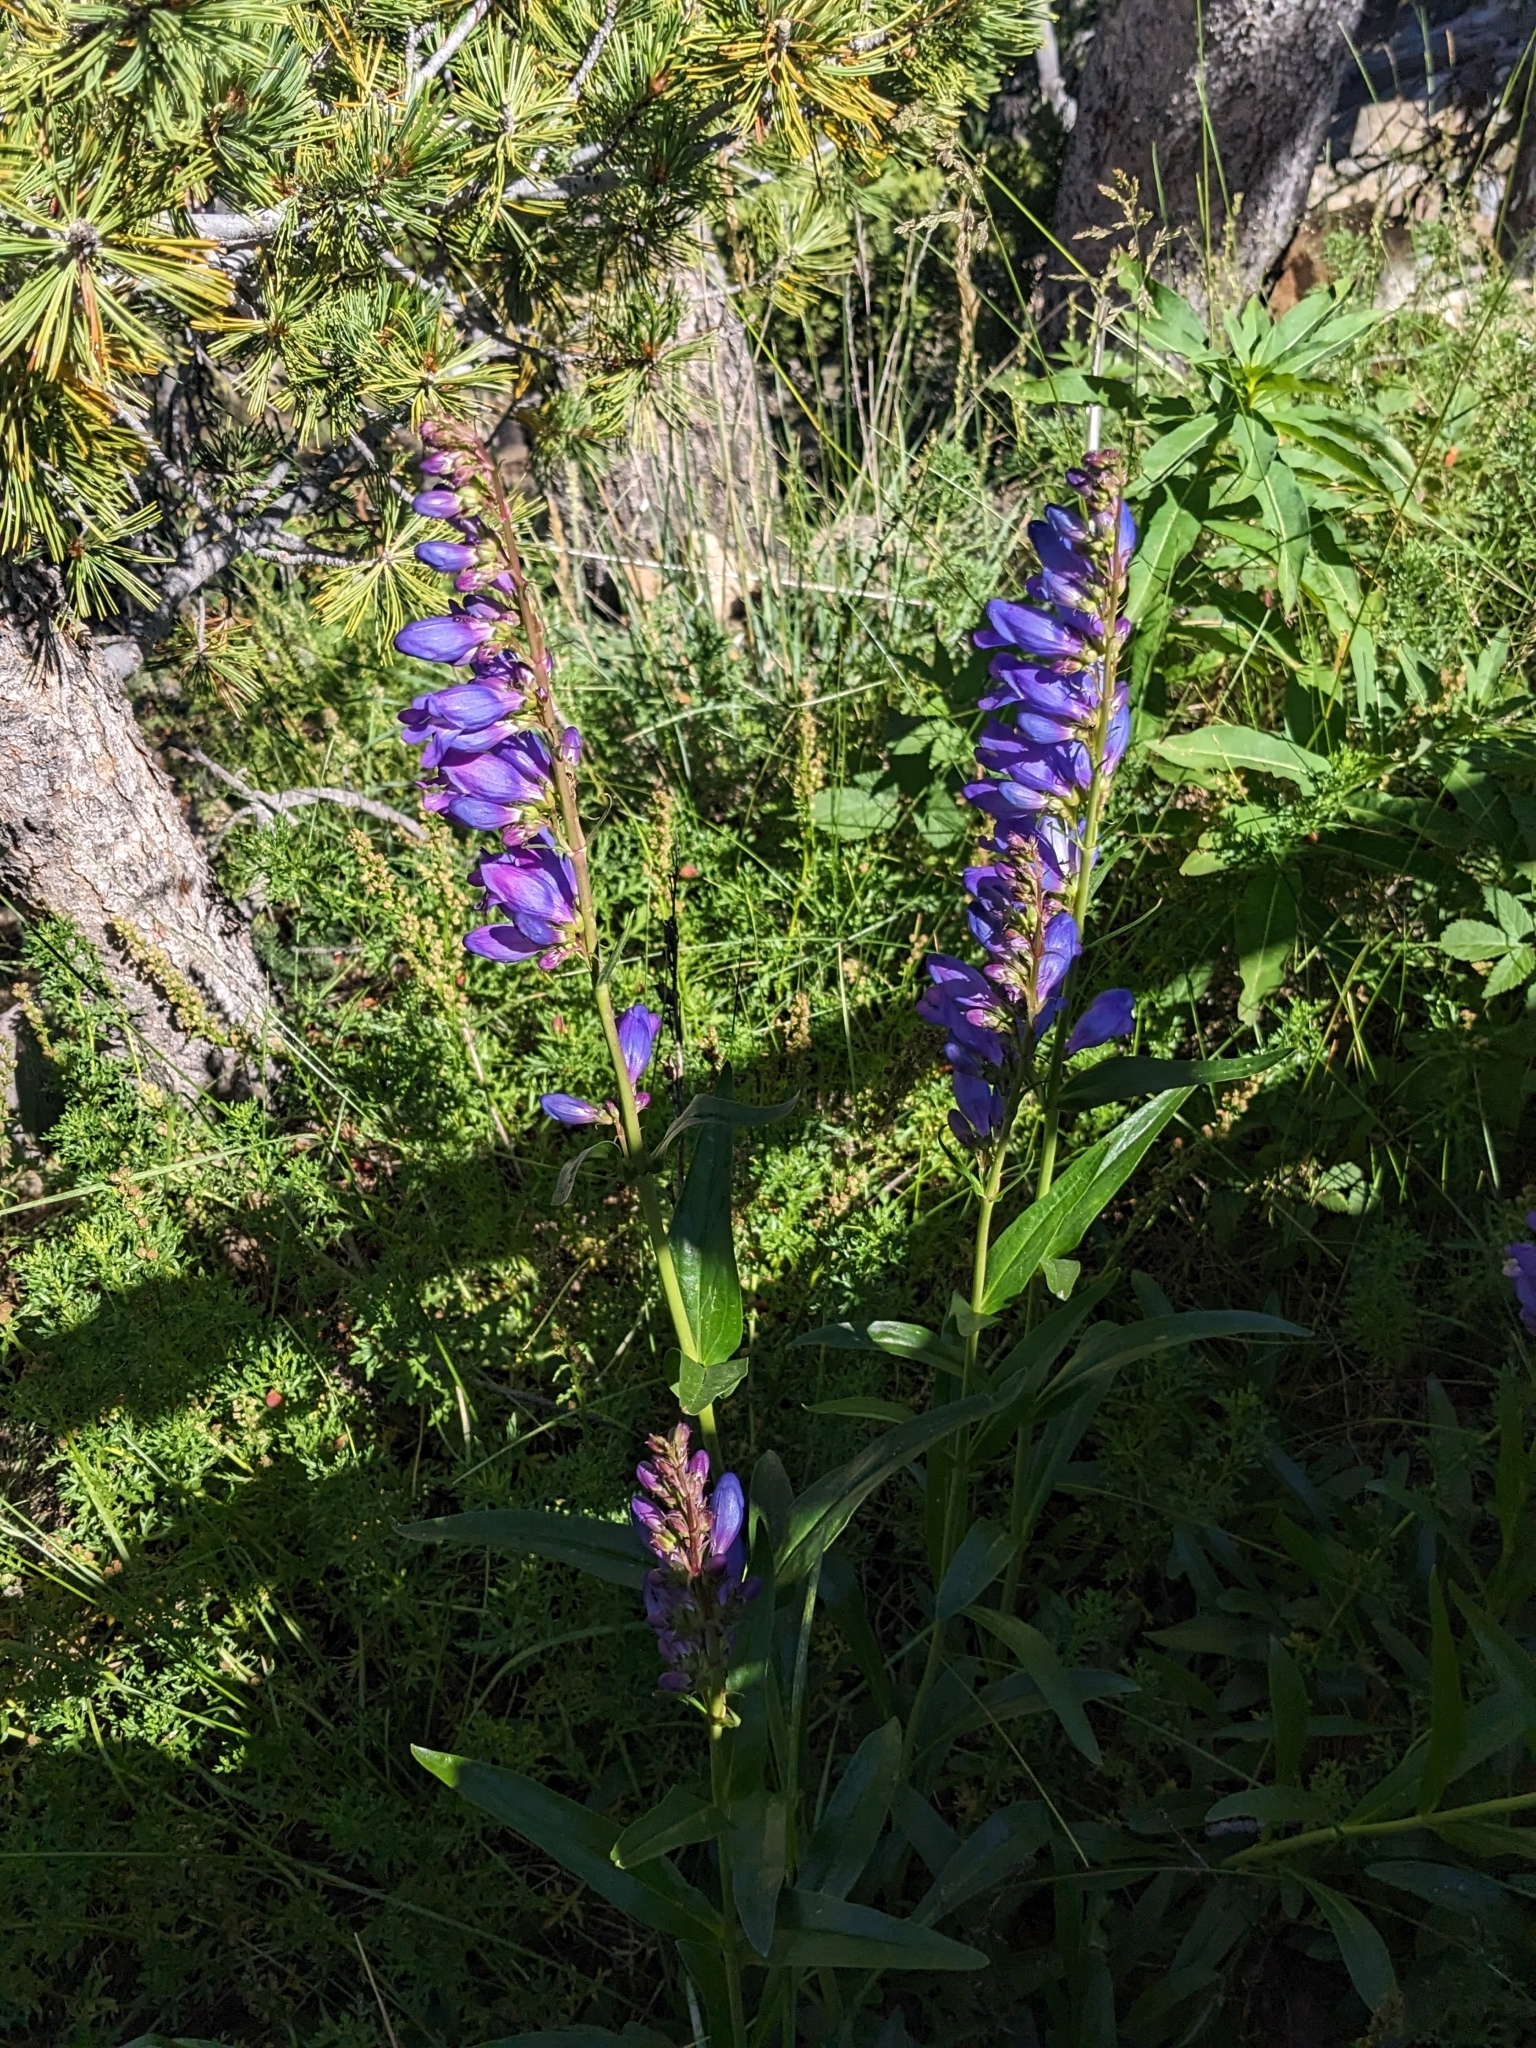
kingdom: Plantae
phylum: Tracheophyta
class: Magnoliopsida
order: Lamiales
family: Plantaginaceae
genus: Penstemon
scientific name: Penstemon strictus
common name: Rocky mountain penstemon
